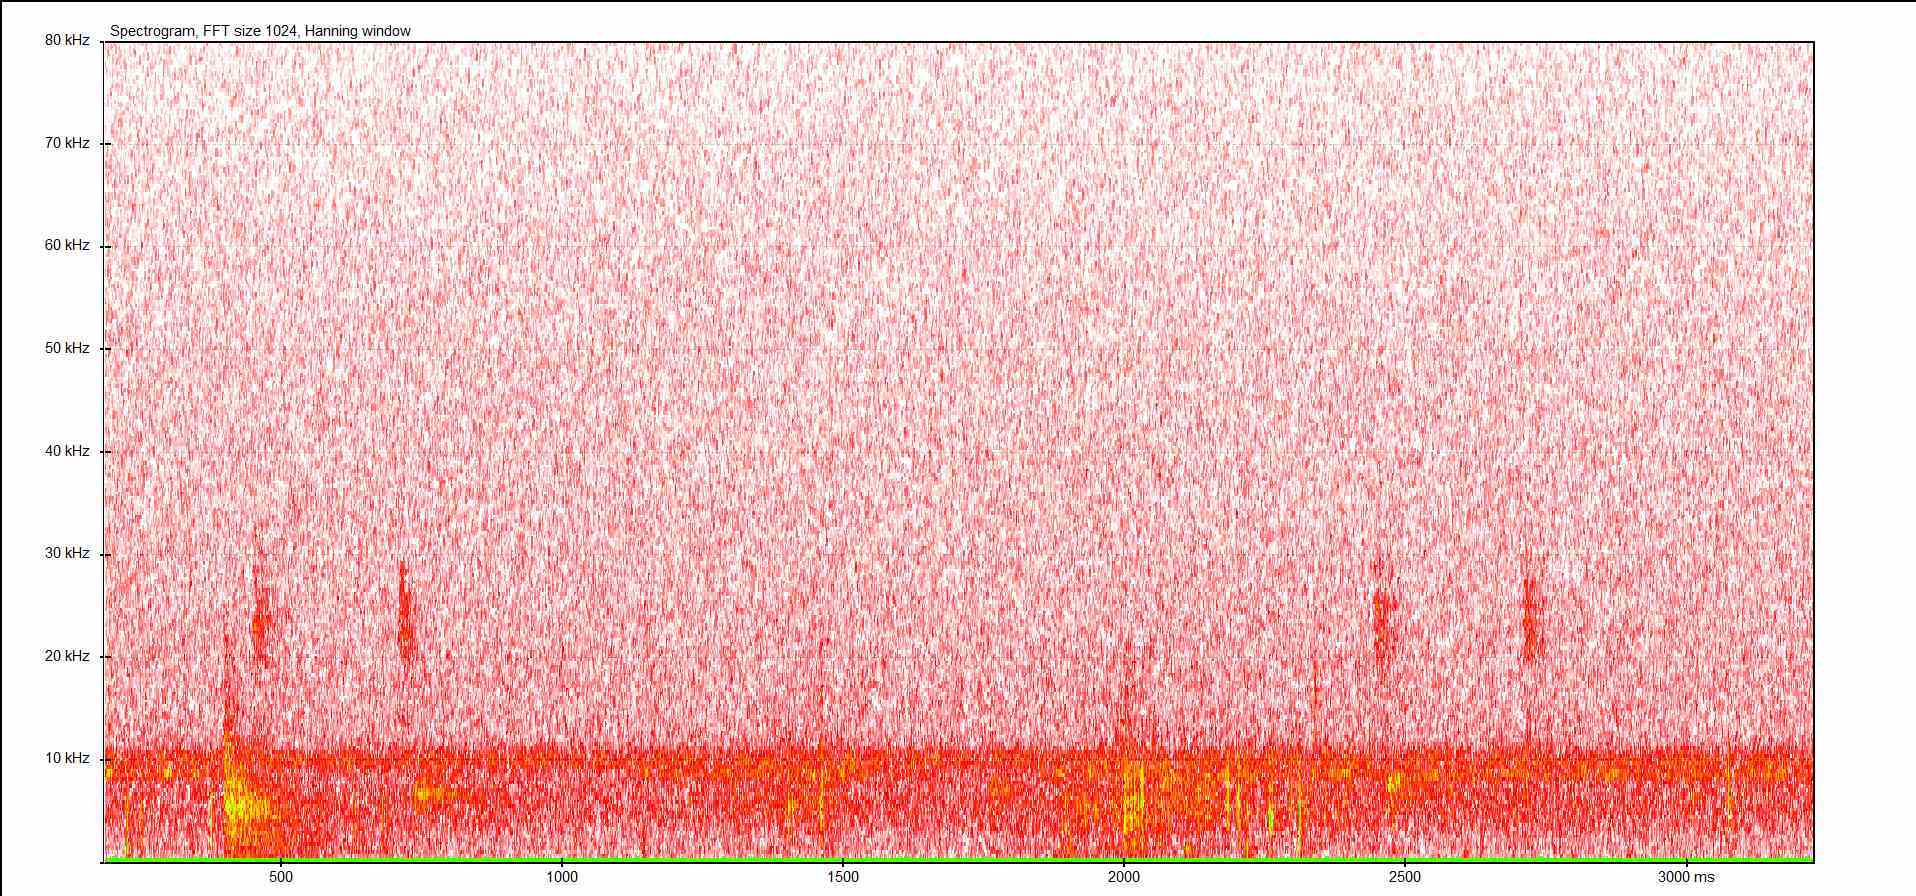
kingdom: Animalia
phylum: Arthropoda
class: Insecta
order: Orthoptera
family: Tettigoniidae
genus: Barbitistes
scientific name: Barbitistes serricauda
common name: Saw-tailed bush-cricket
